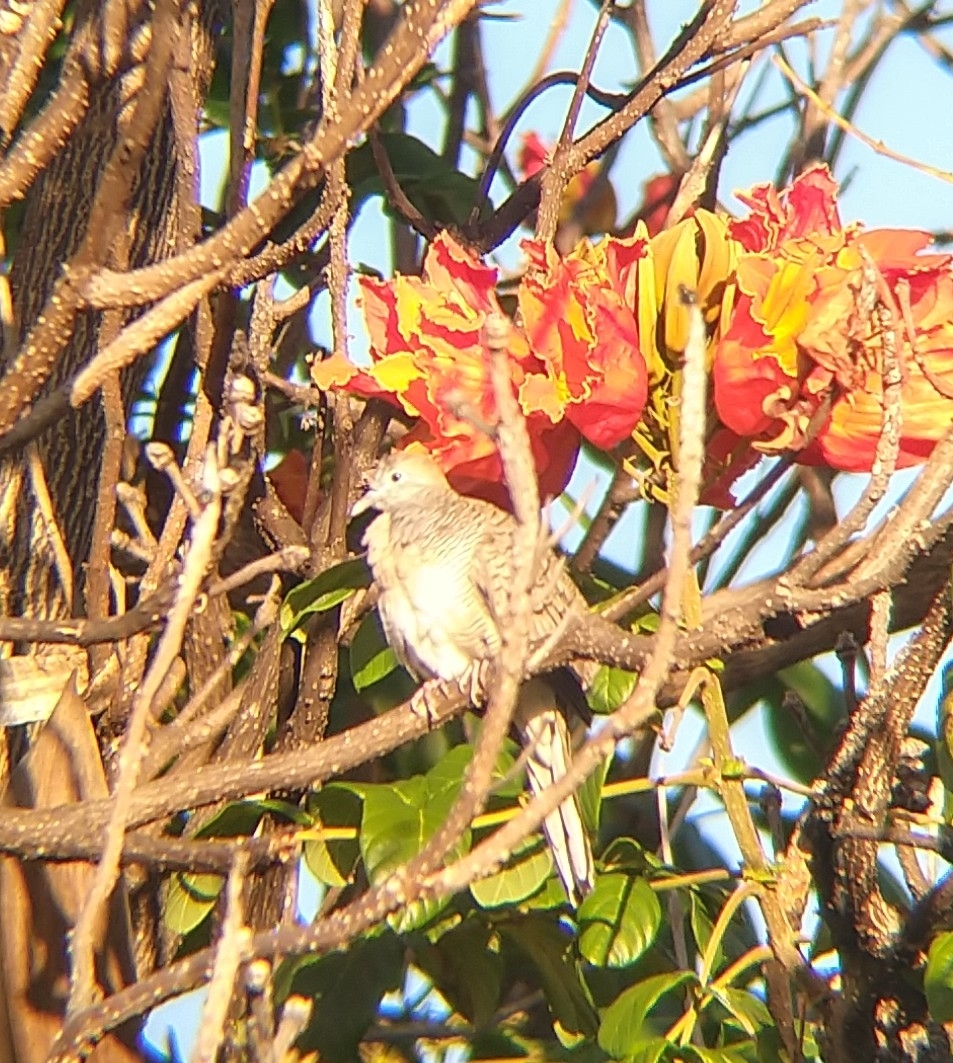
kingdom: Animalia
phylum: Chordata
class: Aves
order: Columbiformes
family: Columbidae
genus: Geopelia
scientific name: Geopelia striata
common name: Zebra dove
